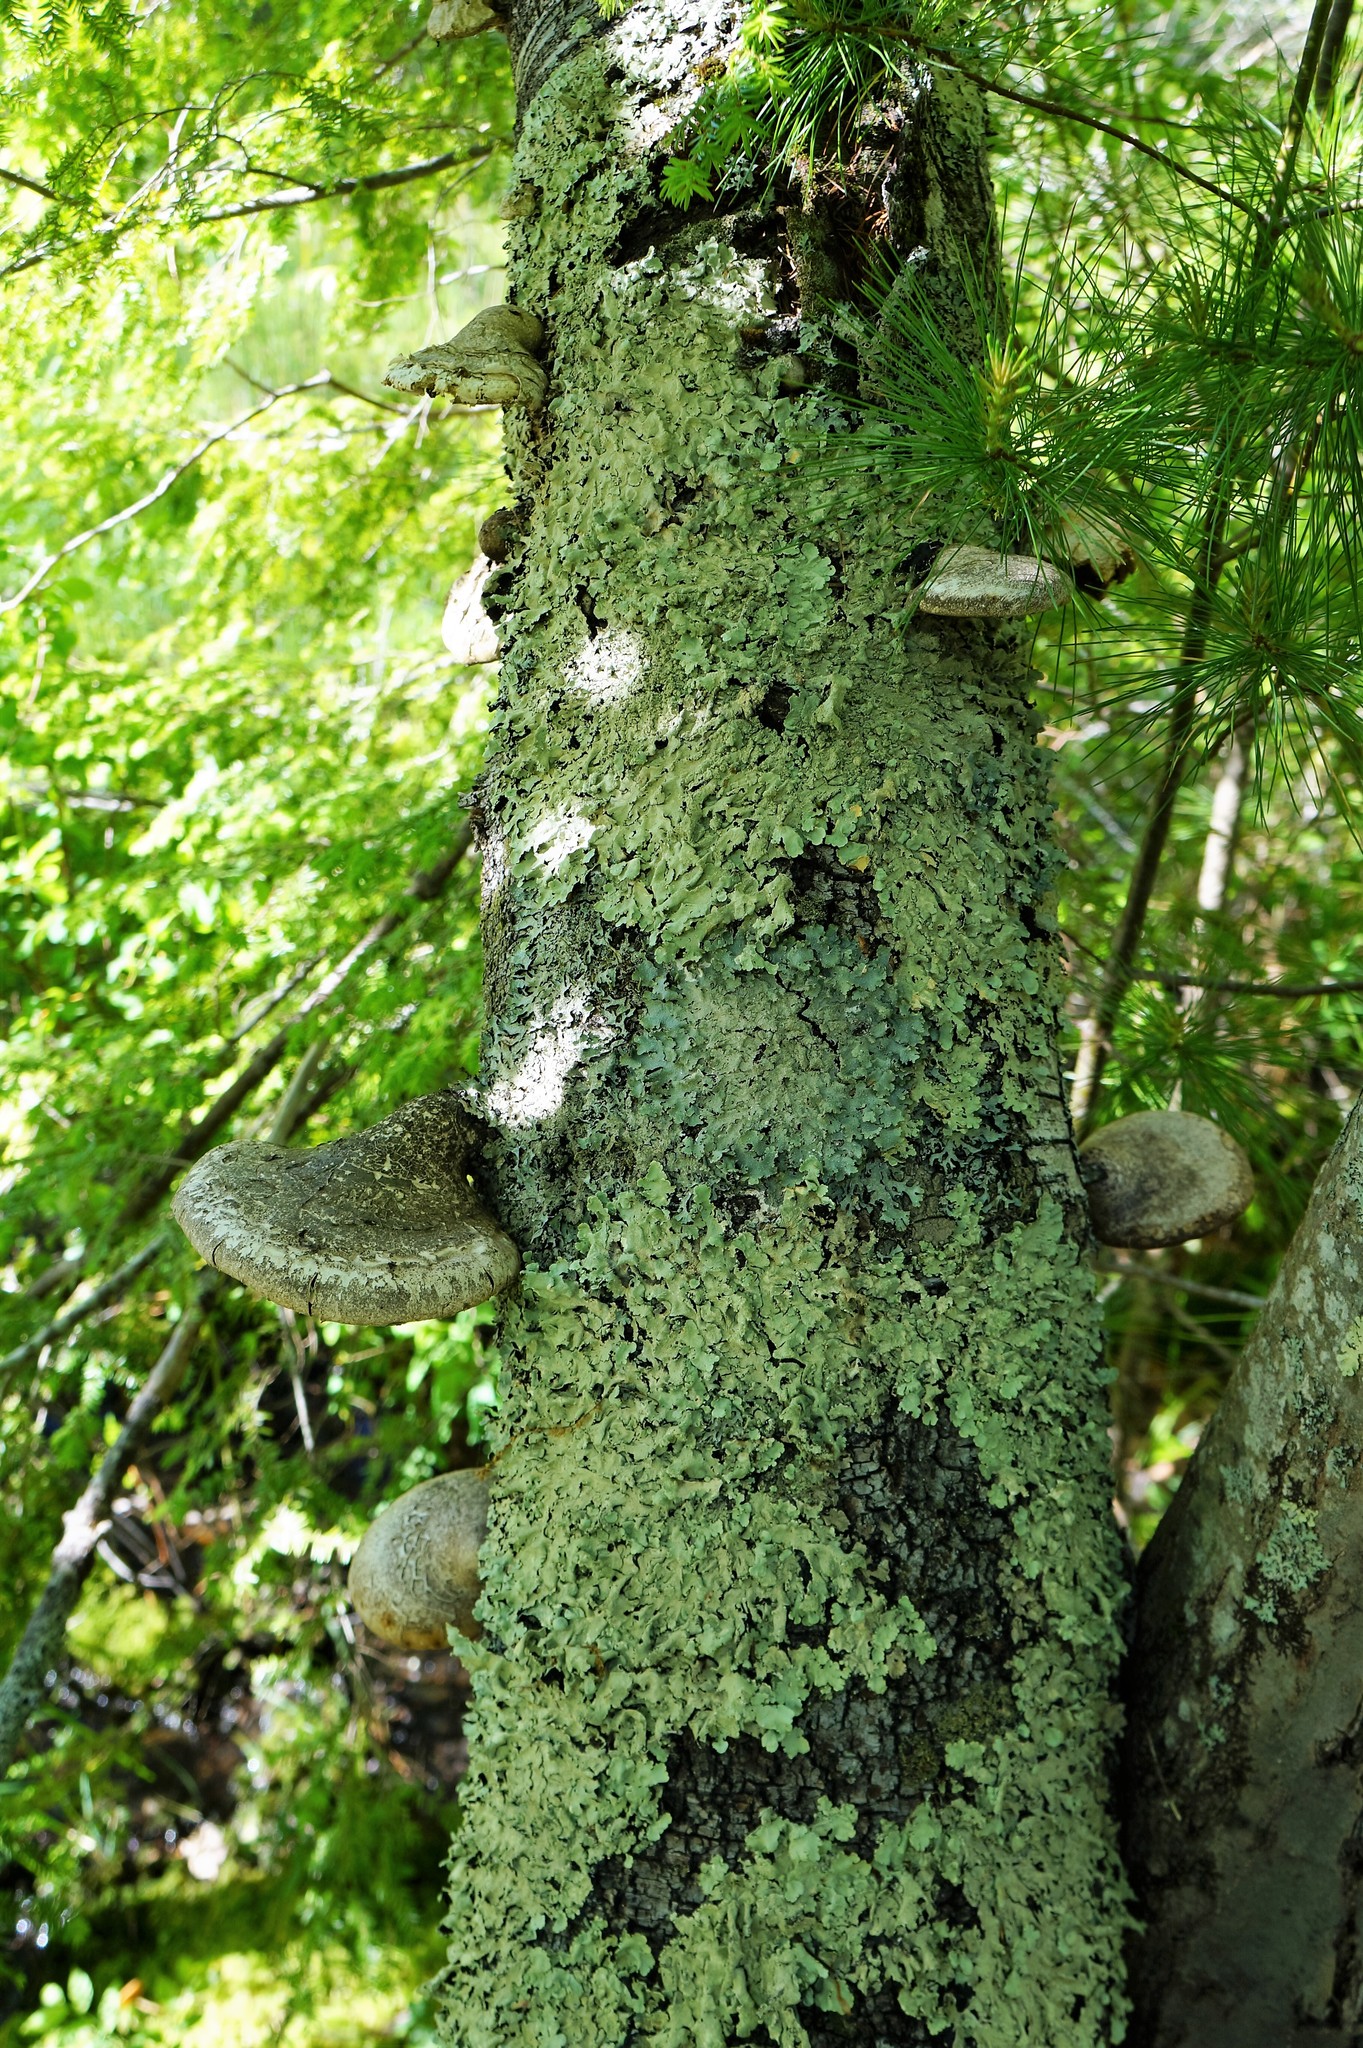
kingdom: Fungi
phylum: Basidiomycota
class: Agaricomycetes
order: Polyporales
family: Fomitopsidaceae
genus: Fomitopsis
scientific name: Fomitopsis betulina
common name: Birch polypore
